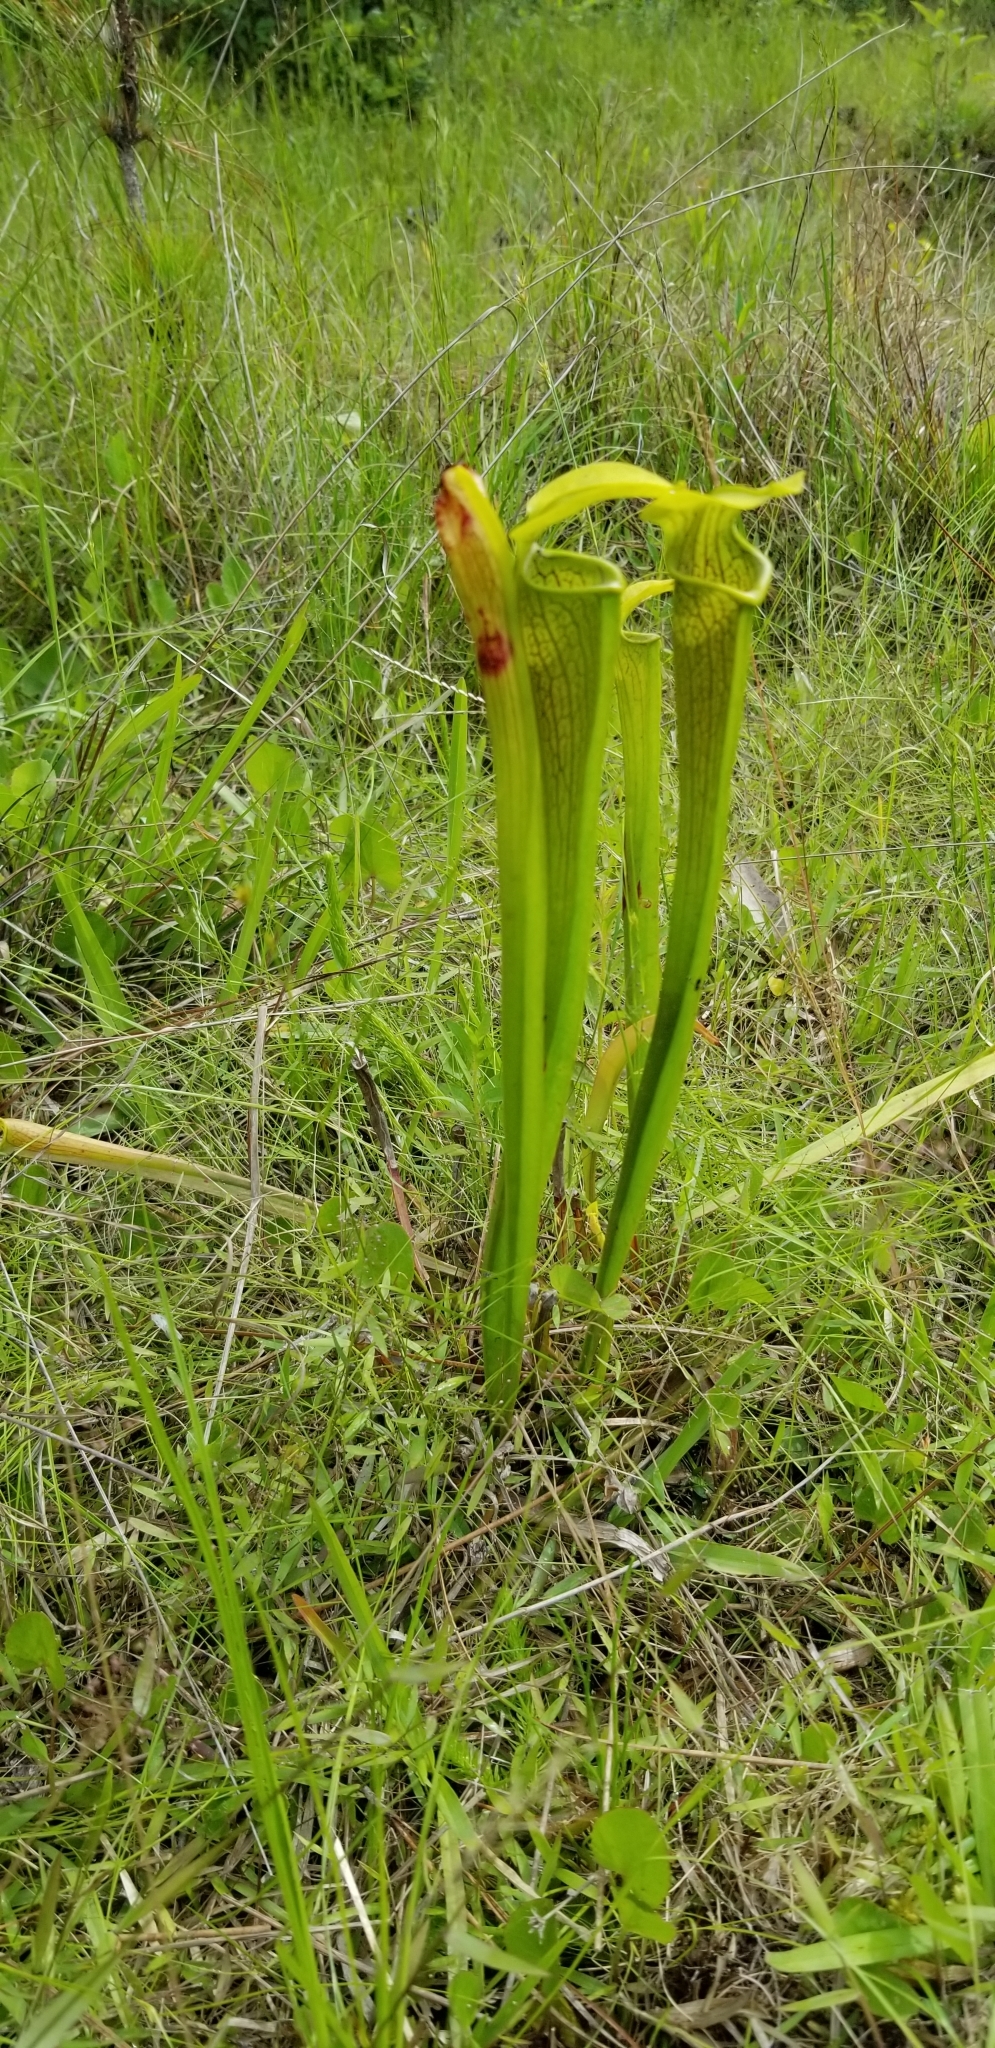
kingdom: Plantae
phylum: Tracheophyta
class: Magnoliopsida
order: Ericales
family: Sarraceniaceae
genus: Sarracenia
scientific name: Sarracenia alata
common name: Yellow trumpets
